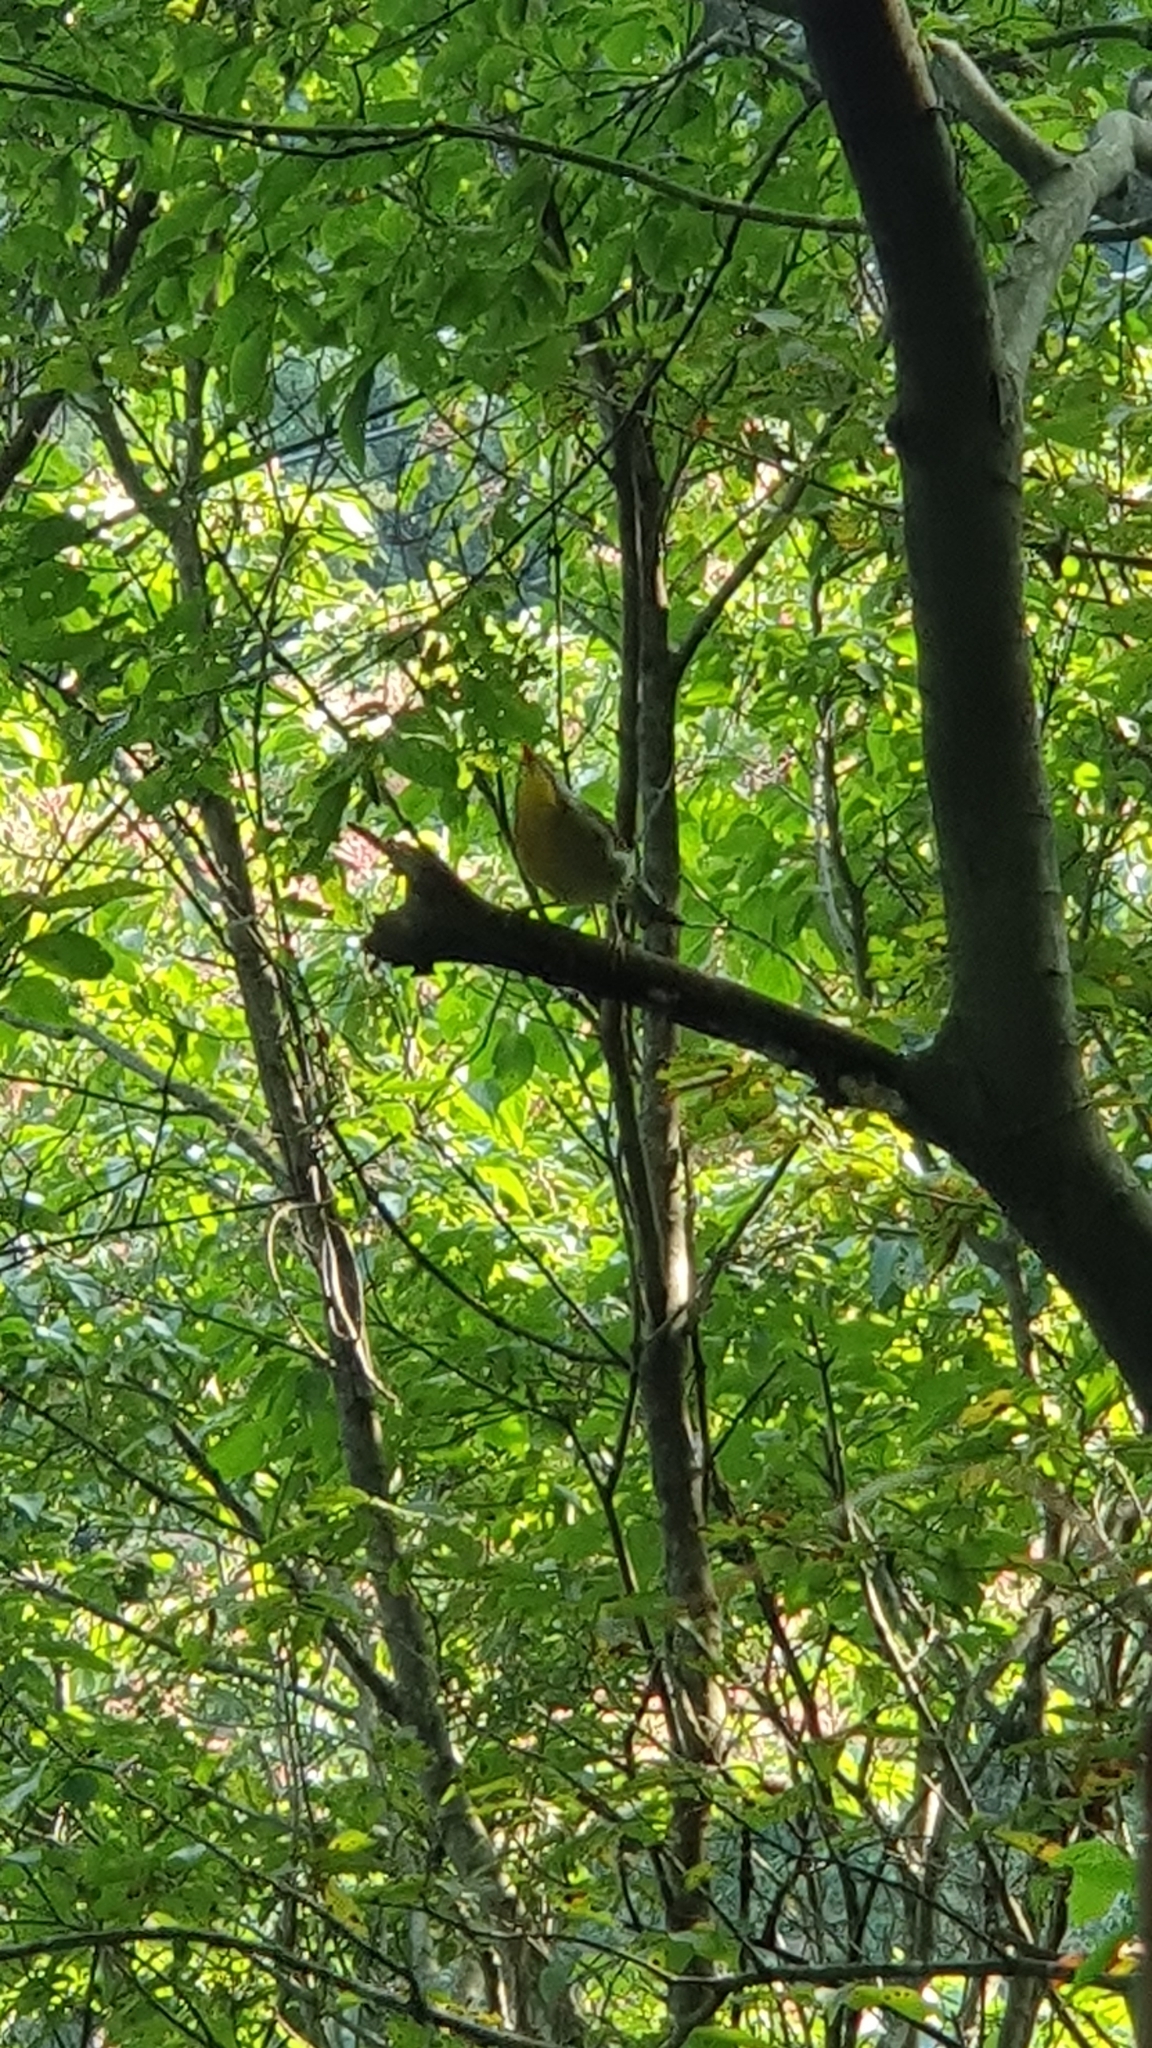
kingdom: Animalia
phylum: Chordata
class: Aves
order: Passeriformes
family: Leiothrichidae
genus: Leiothrix
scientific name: Leiothrix lutea
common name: Red-billed leiothrix
